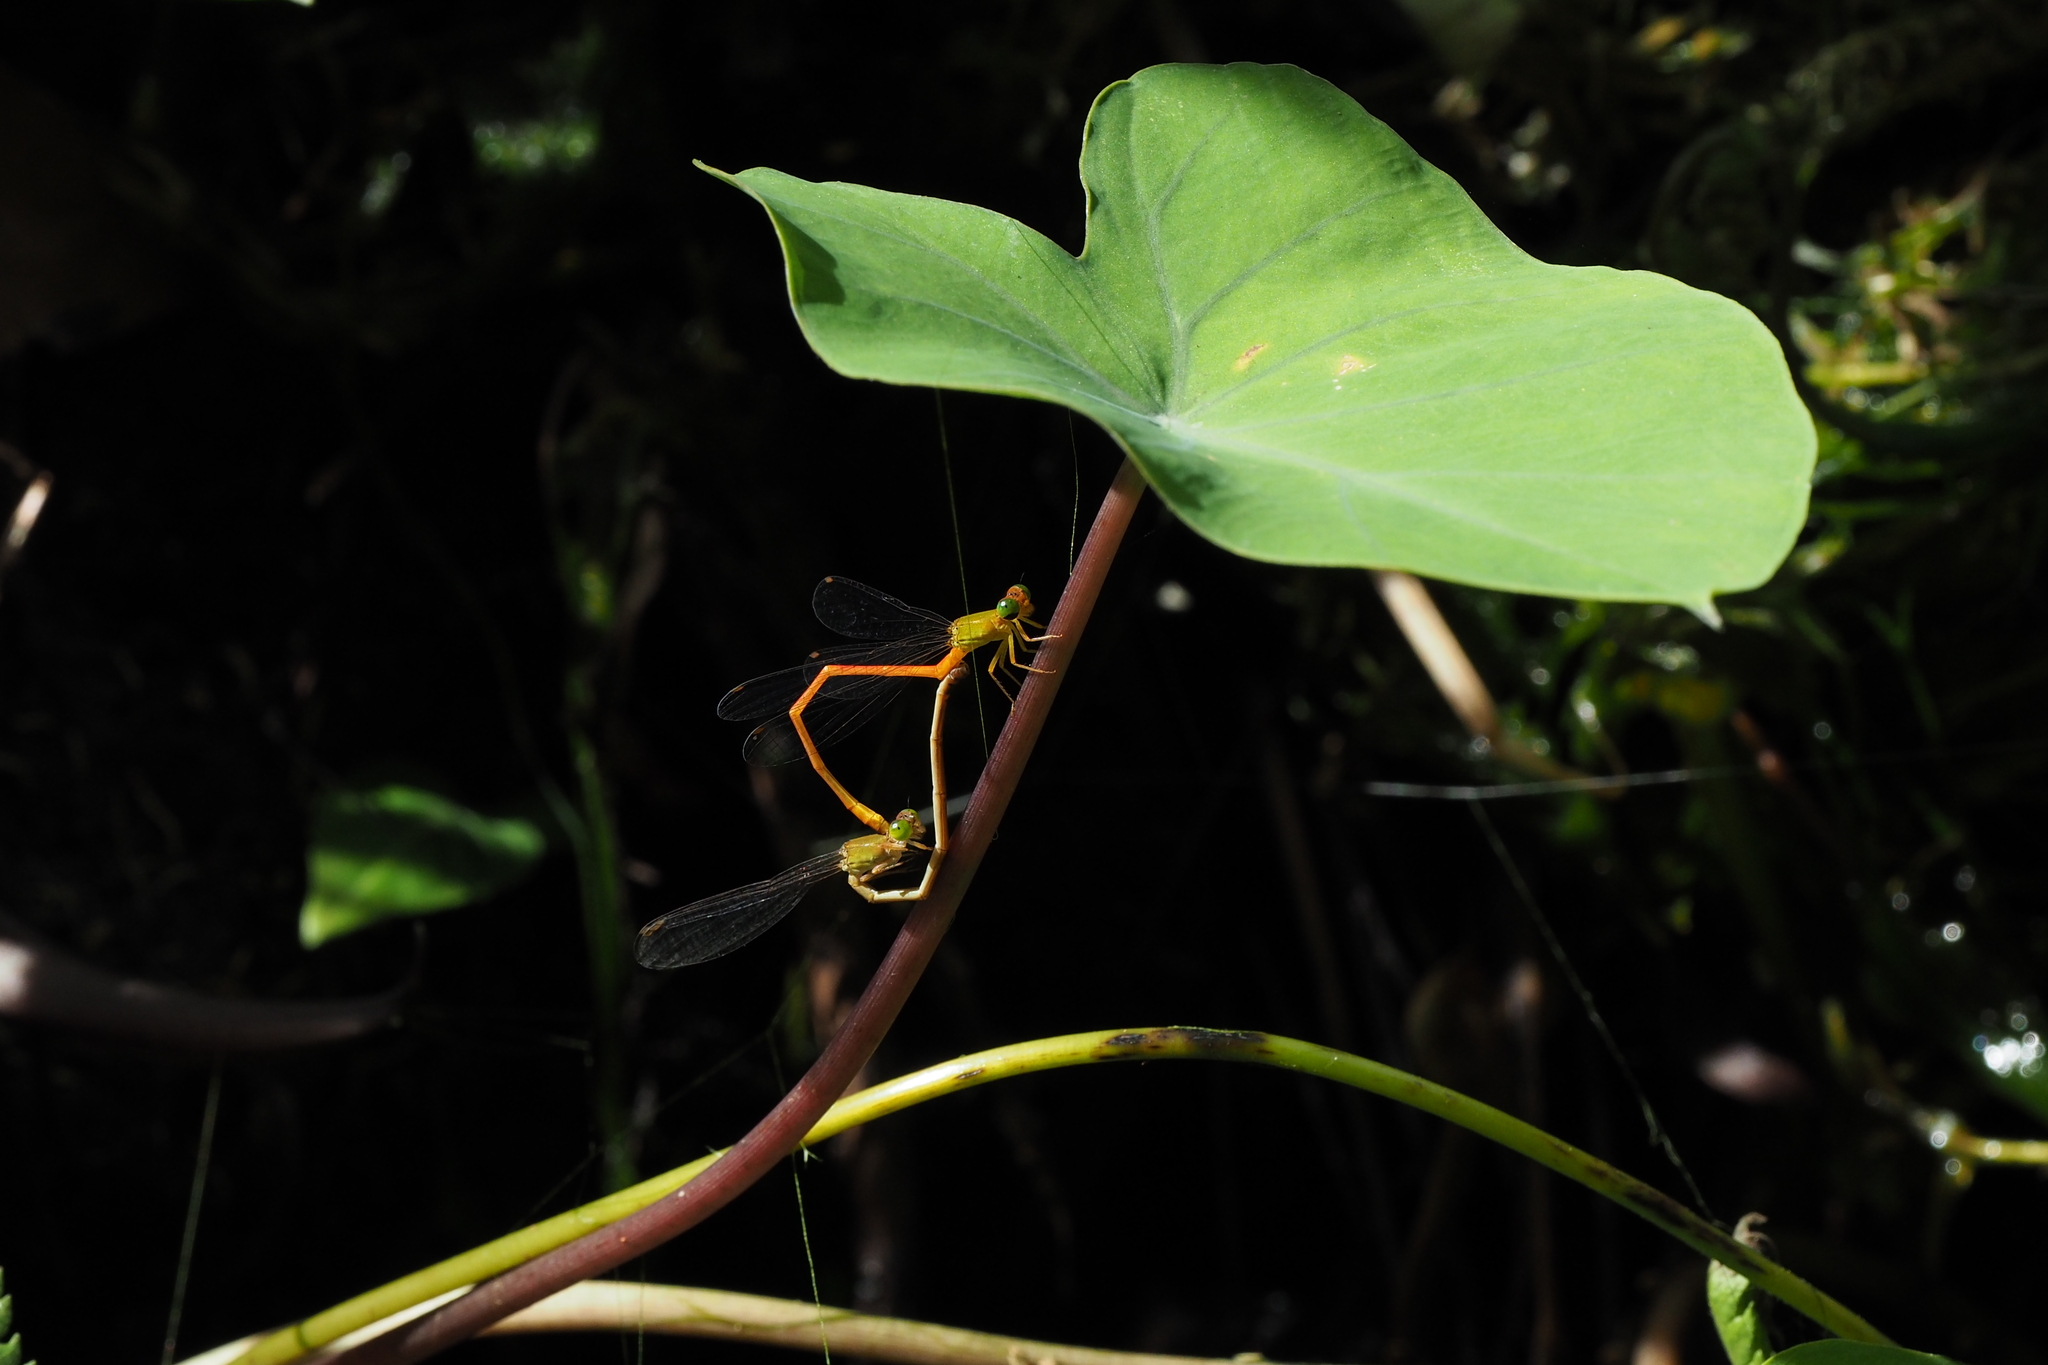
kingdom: Animalia
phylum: Arthropoda
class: Insecta
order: Odonata
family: Coenagrionidae
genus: Ceriagrion
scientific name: Ceriagrion auranticum
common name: Orange-tailed sprite
